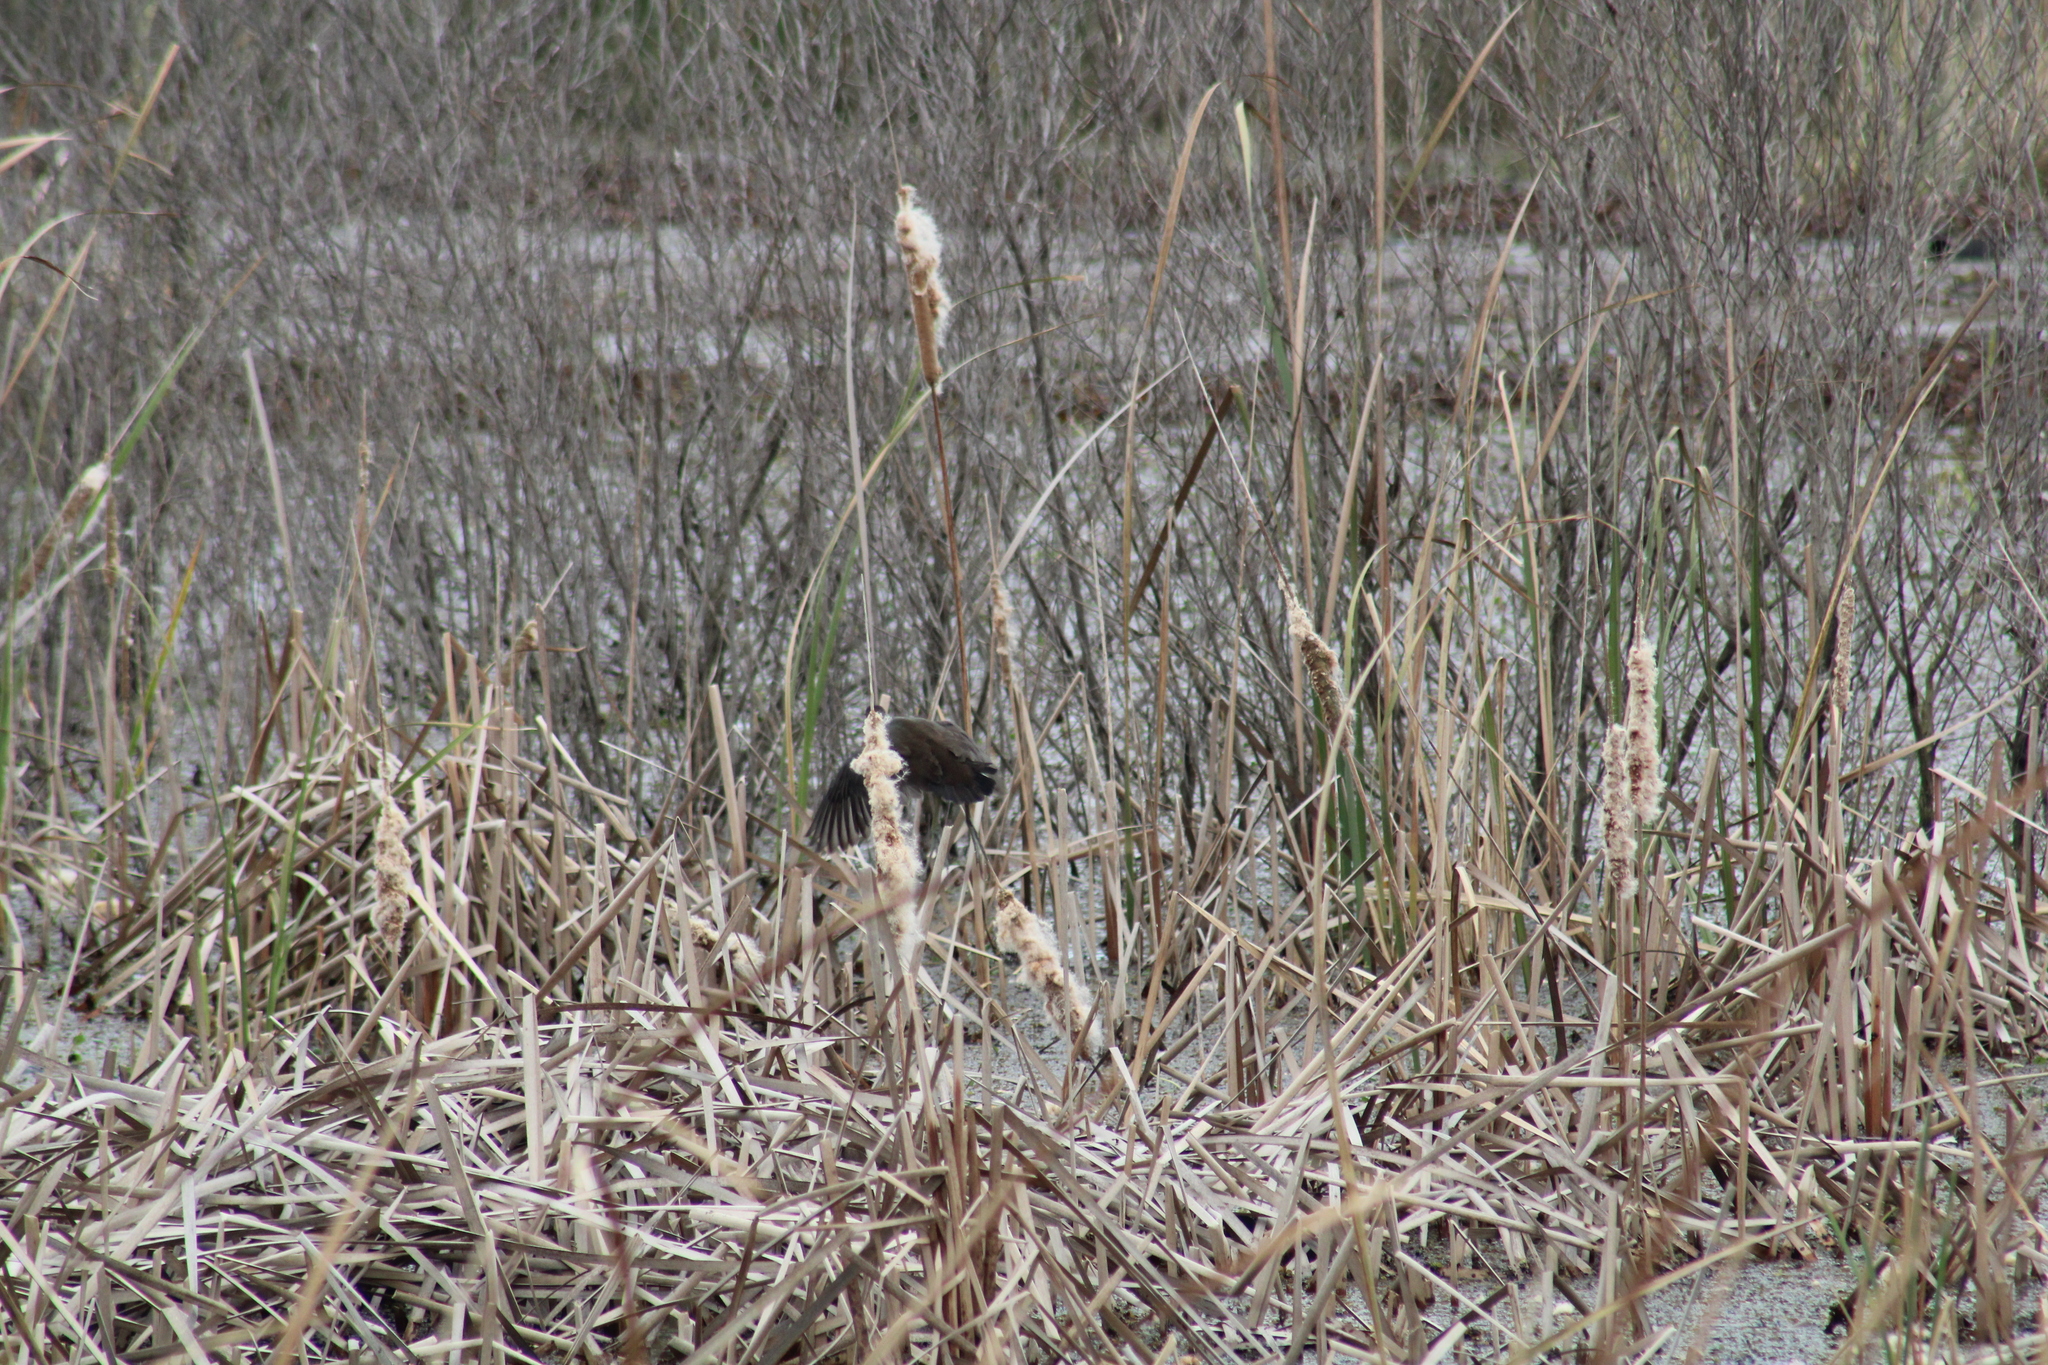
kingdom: Animalia
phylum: Chordata
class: Aves
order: Gruiformes
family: Rallidae
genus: Porzana
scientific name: Porzana carolina
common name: Sora
